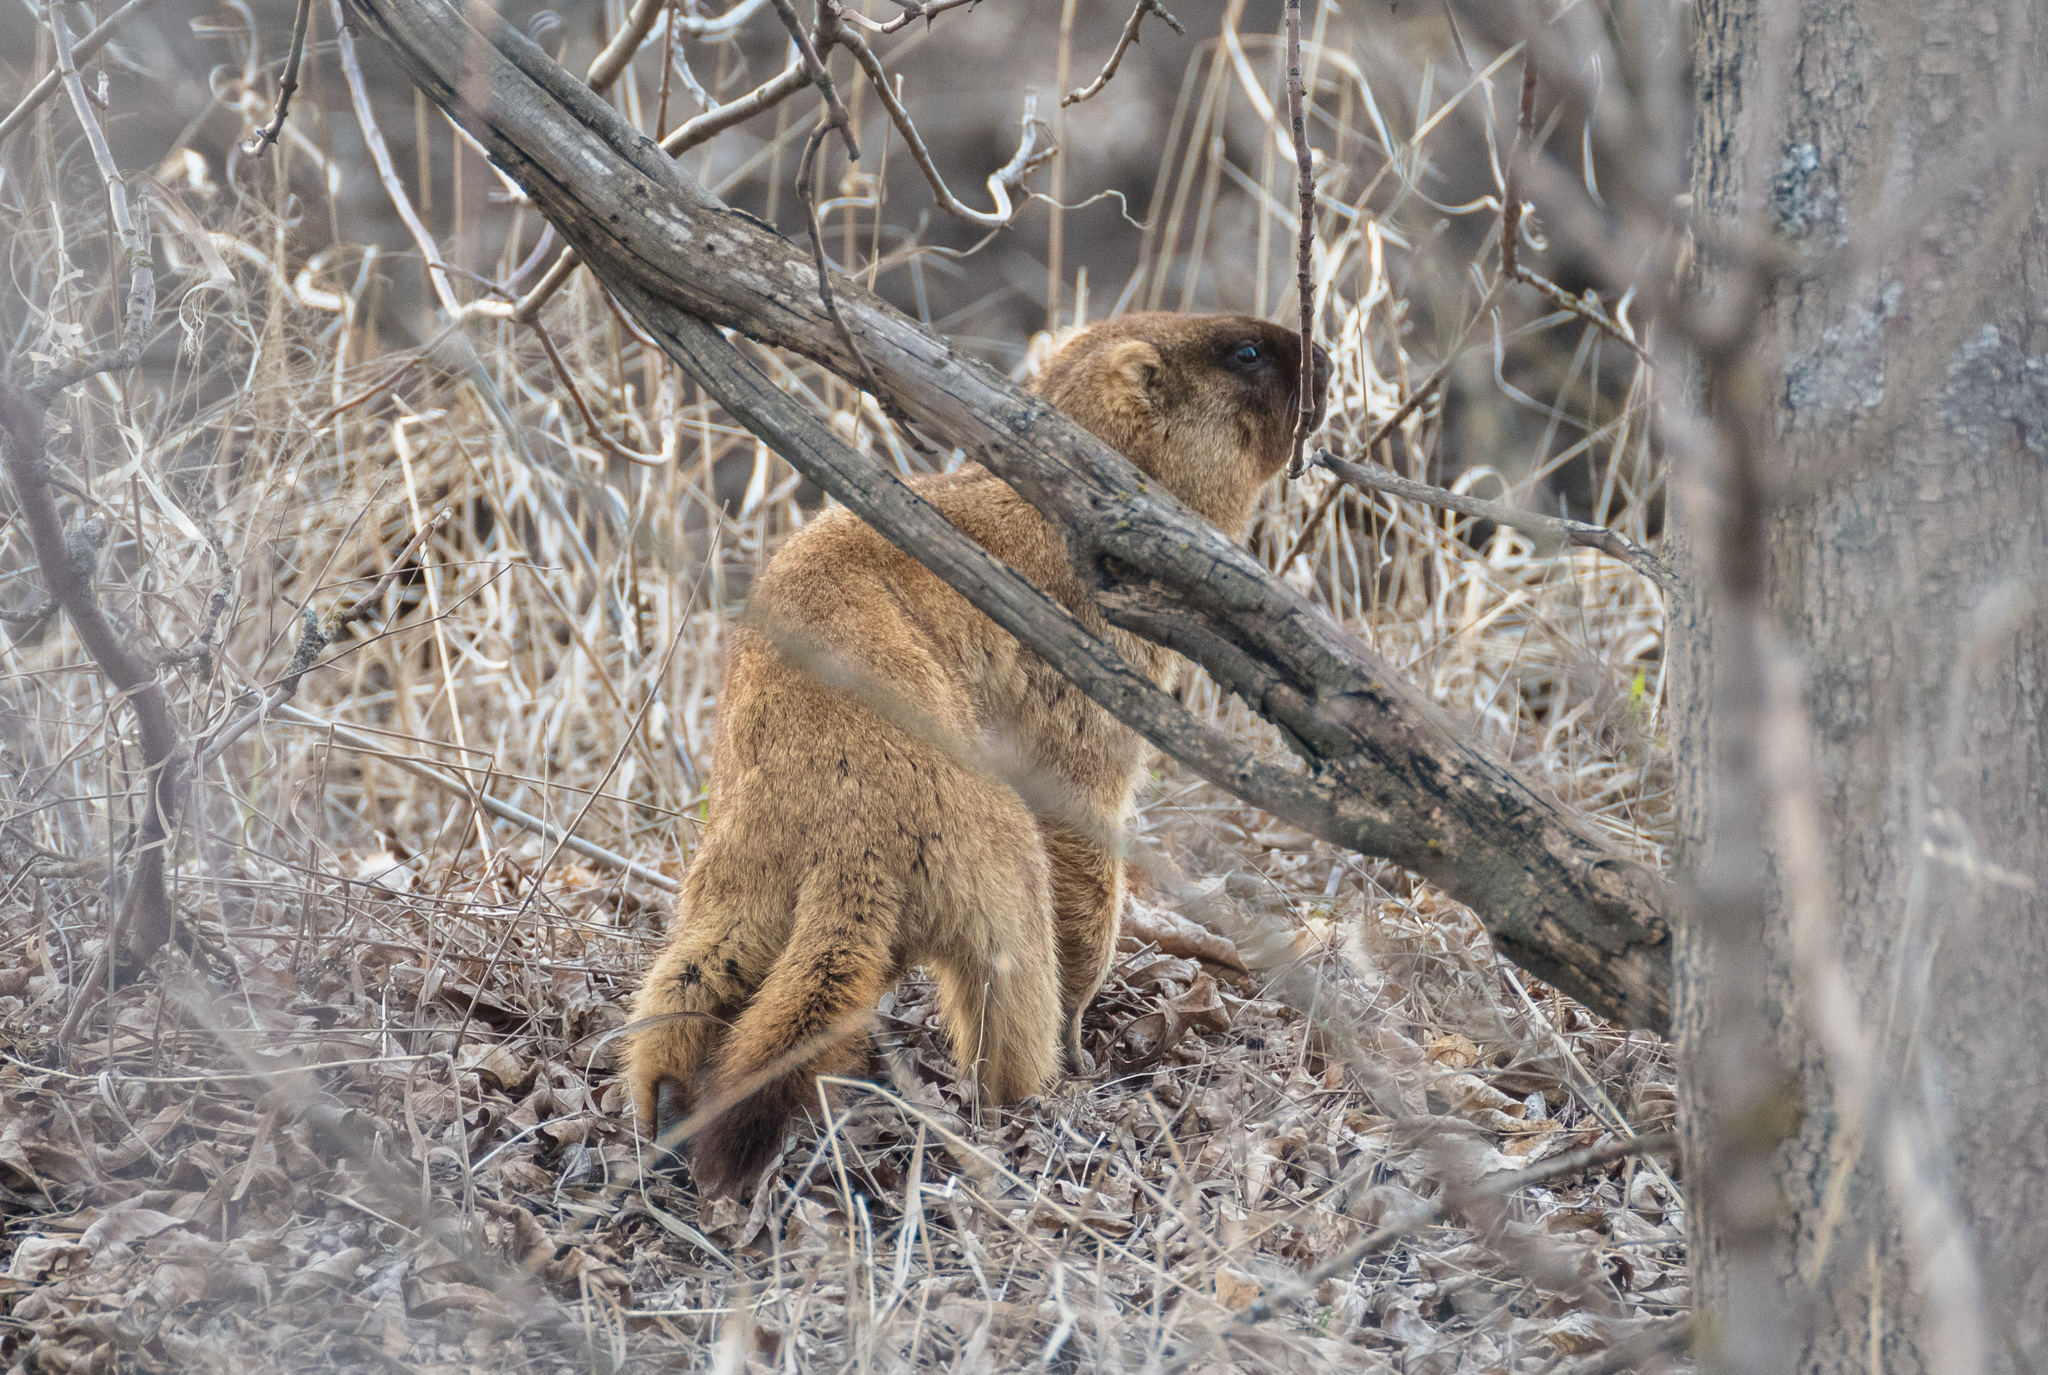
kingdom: Animalia
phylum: Chordata
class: Mammalia
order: Rodentia
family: Sciuridae
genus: Marmota
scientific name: Marmota bobak
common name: Bobak marmot
